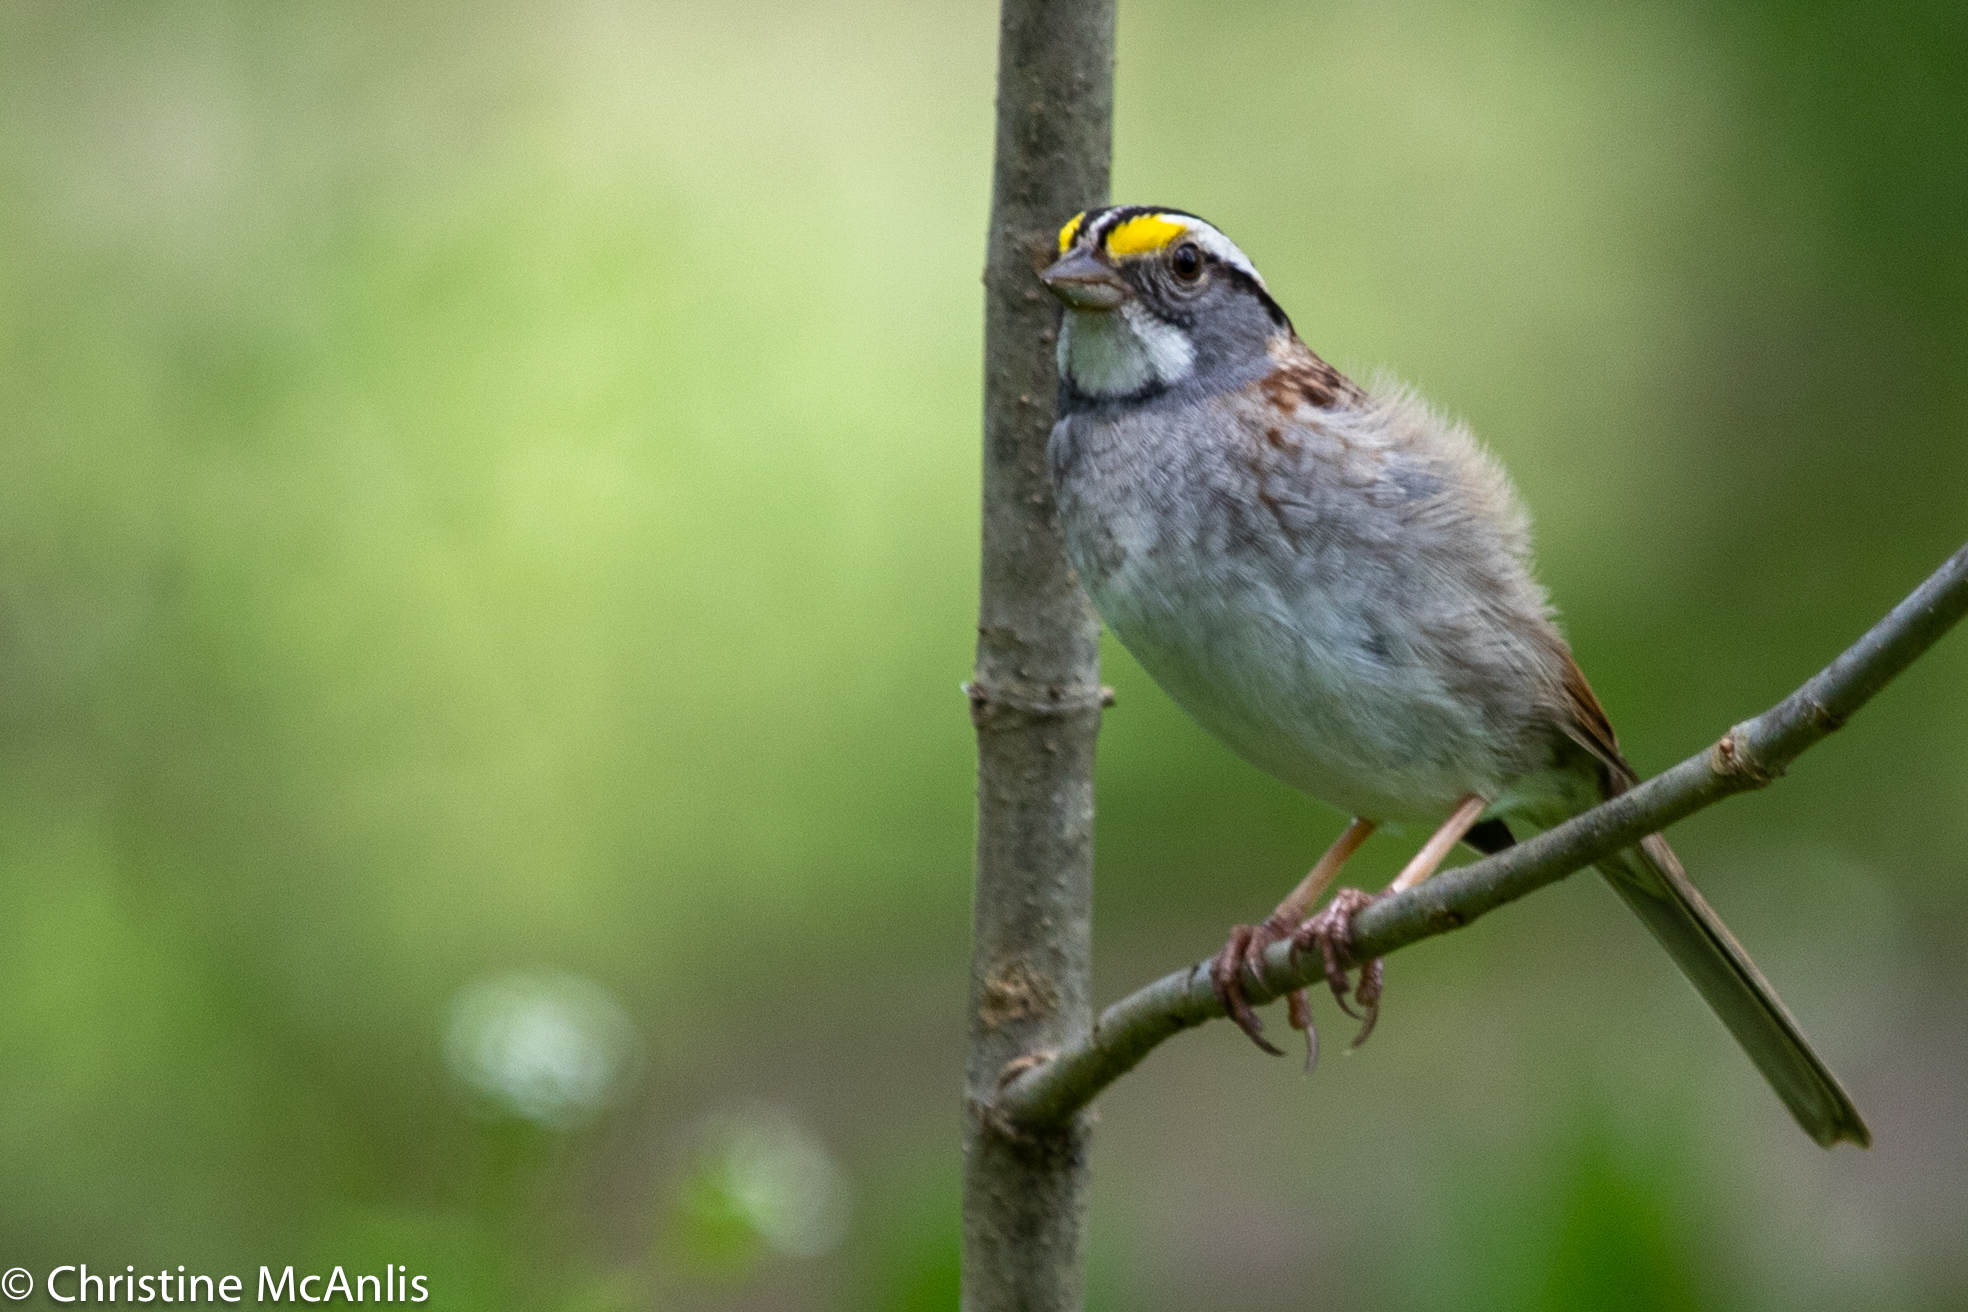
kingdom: Animalia
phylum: Chordata
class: Aves
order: Passeriformes
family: Passerellidae
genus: Zonotrichia
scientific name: Zonotrichia albicollis
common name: White-throated sparrow
